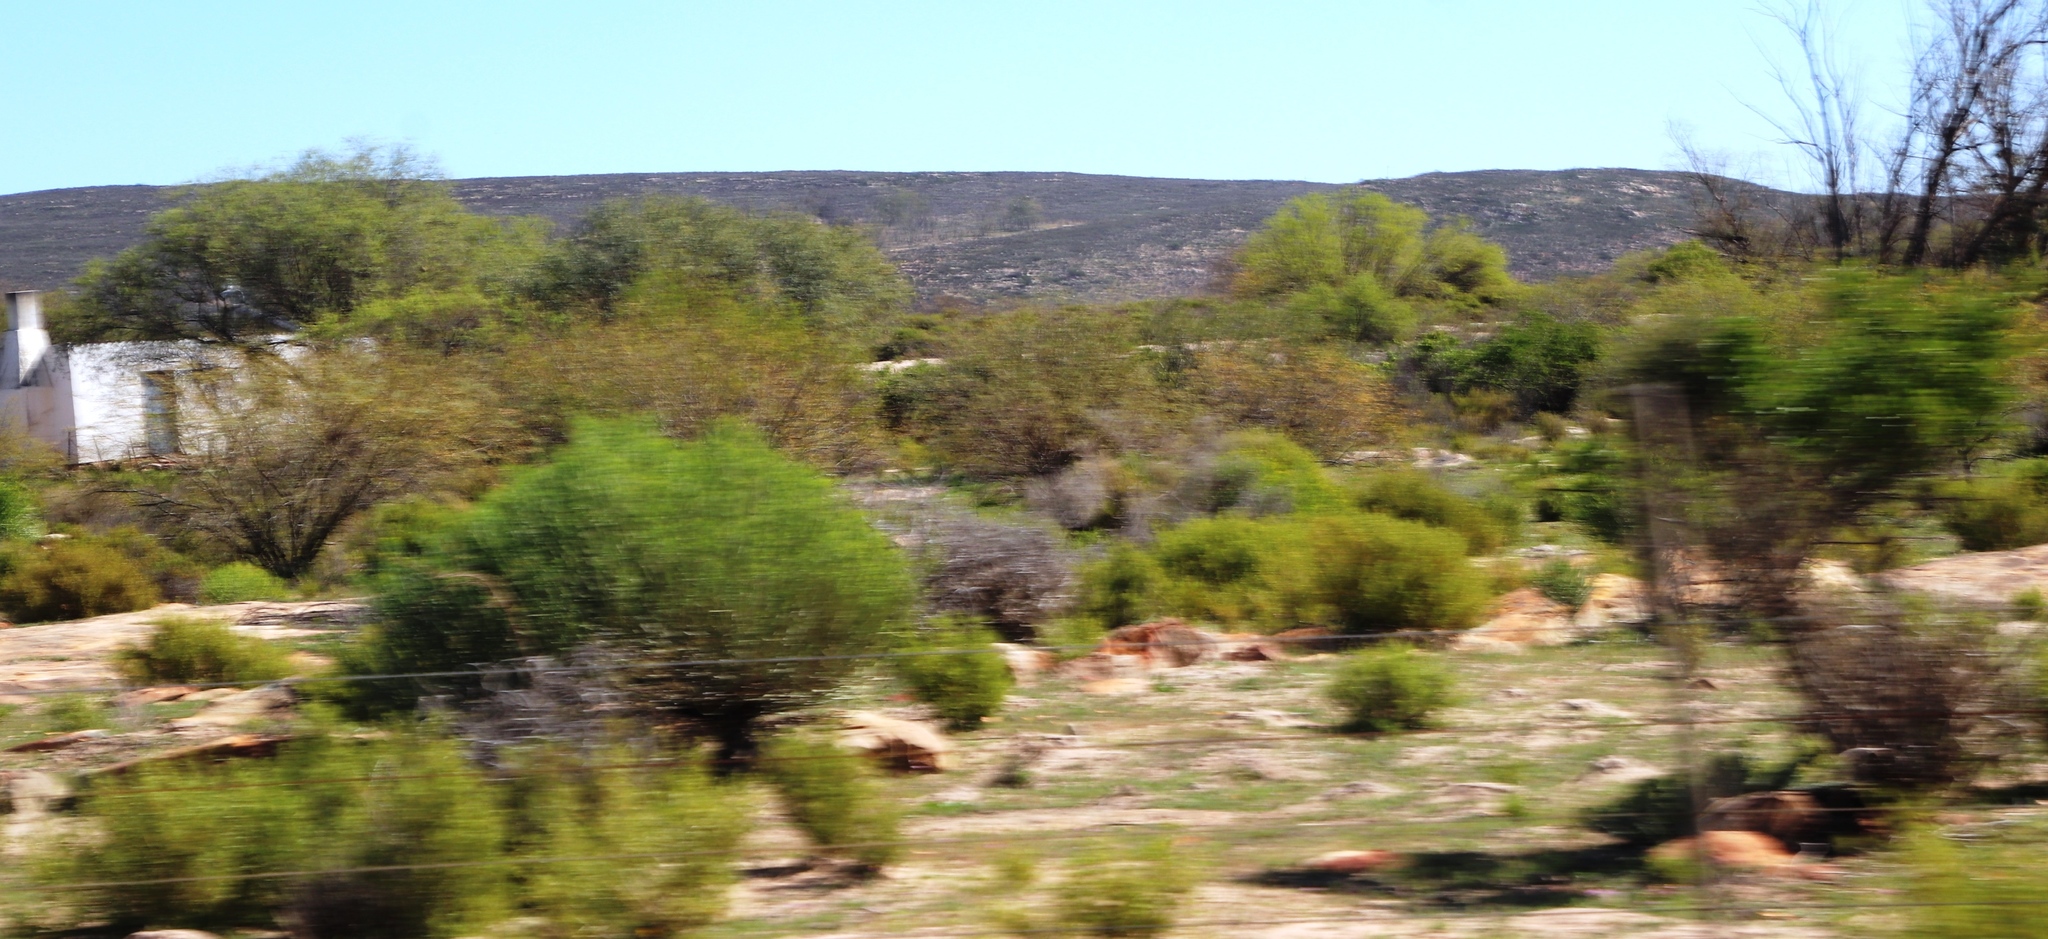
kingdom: Plantae
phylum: Tracheophyta
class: Magnoliopsida
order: Fabales
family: Fabaceae
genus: Prosopis
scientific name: Prosopis pubescens
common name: Screw-bean
